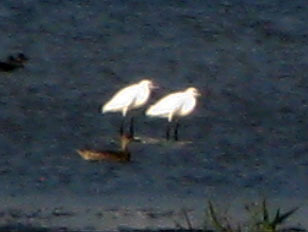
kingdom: Animalia
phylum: Chordata
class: Aves
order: Pelecaniformes
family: Ardeidae
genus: Egretta
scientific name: Egretta garzetta
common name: Little egret
